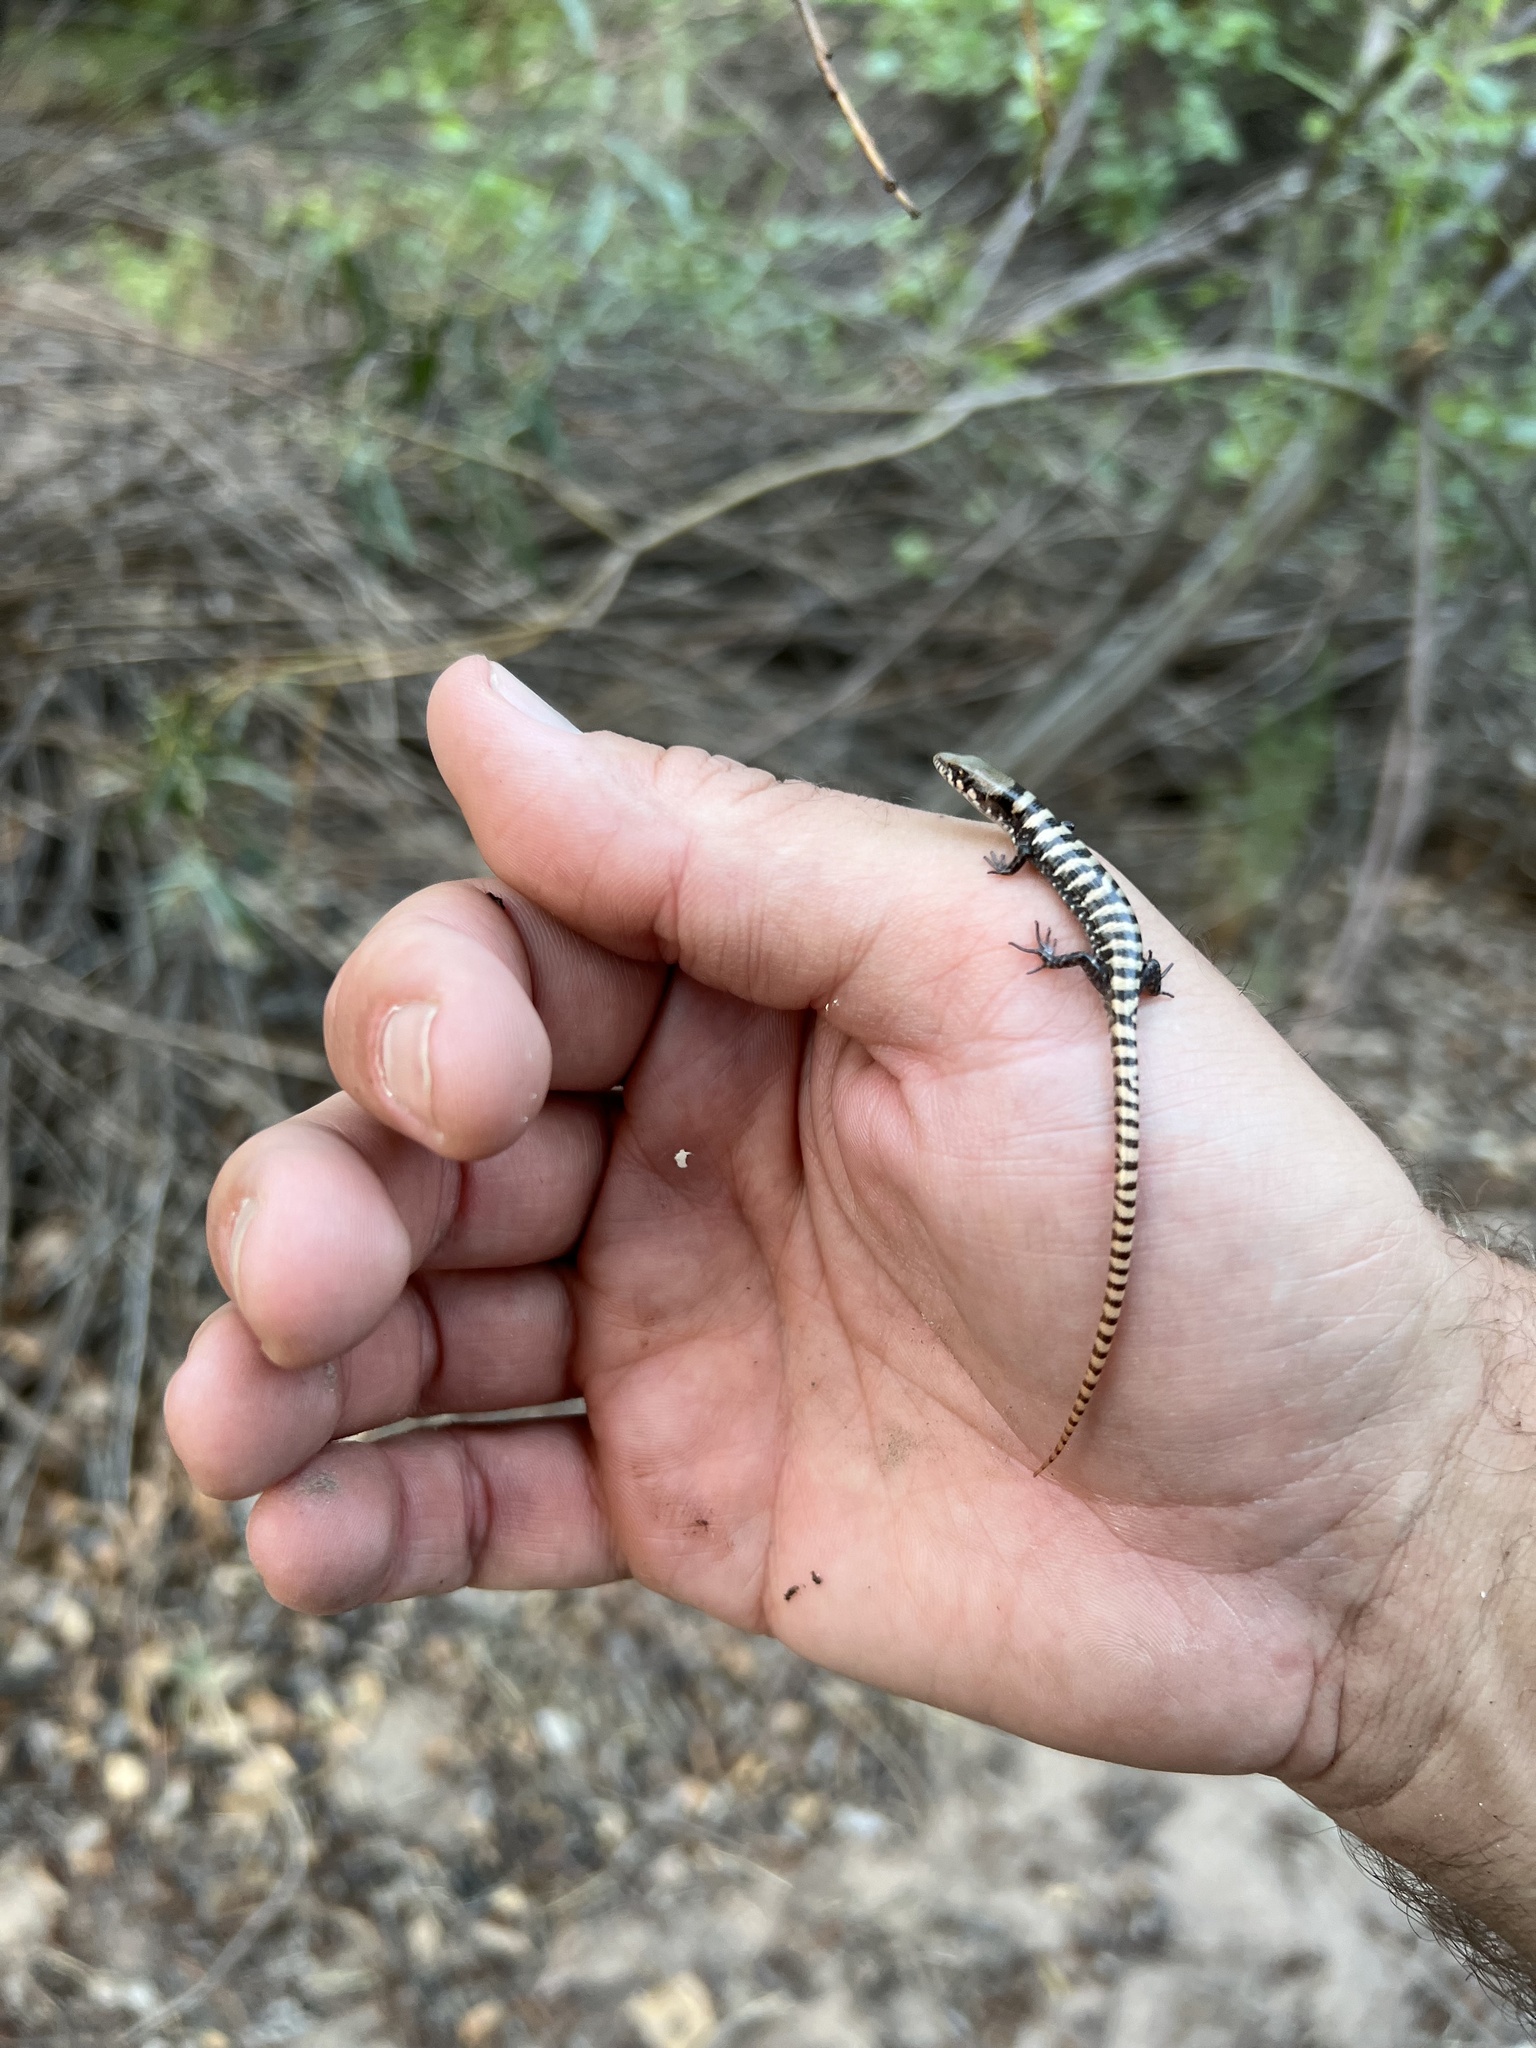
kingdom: Animalia
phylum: Chordata
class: Squamata
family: Anguidae
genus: Elgaria
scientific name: Elgaria kingii
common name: Madrean alligator lizard
